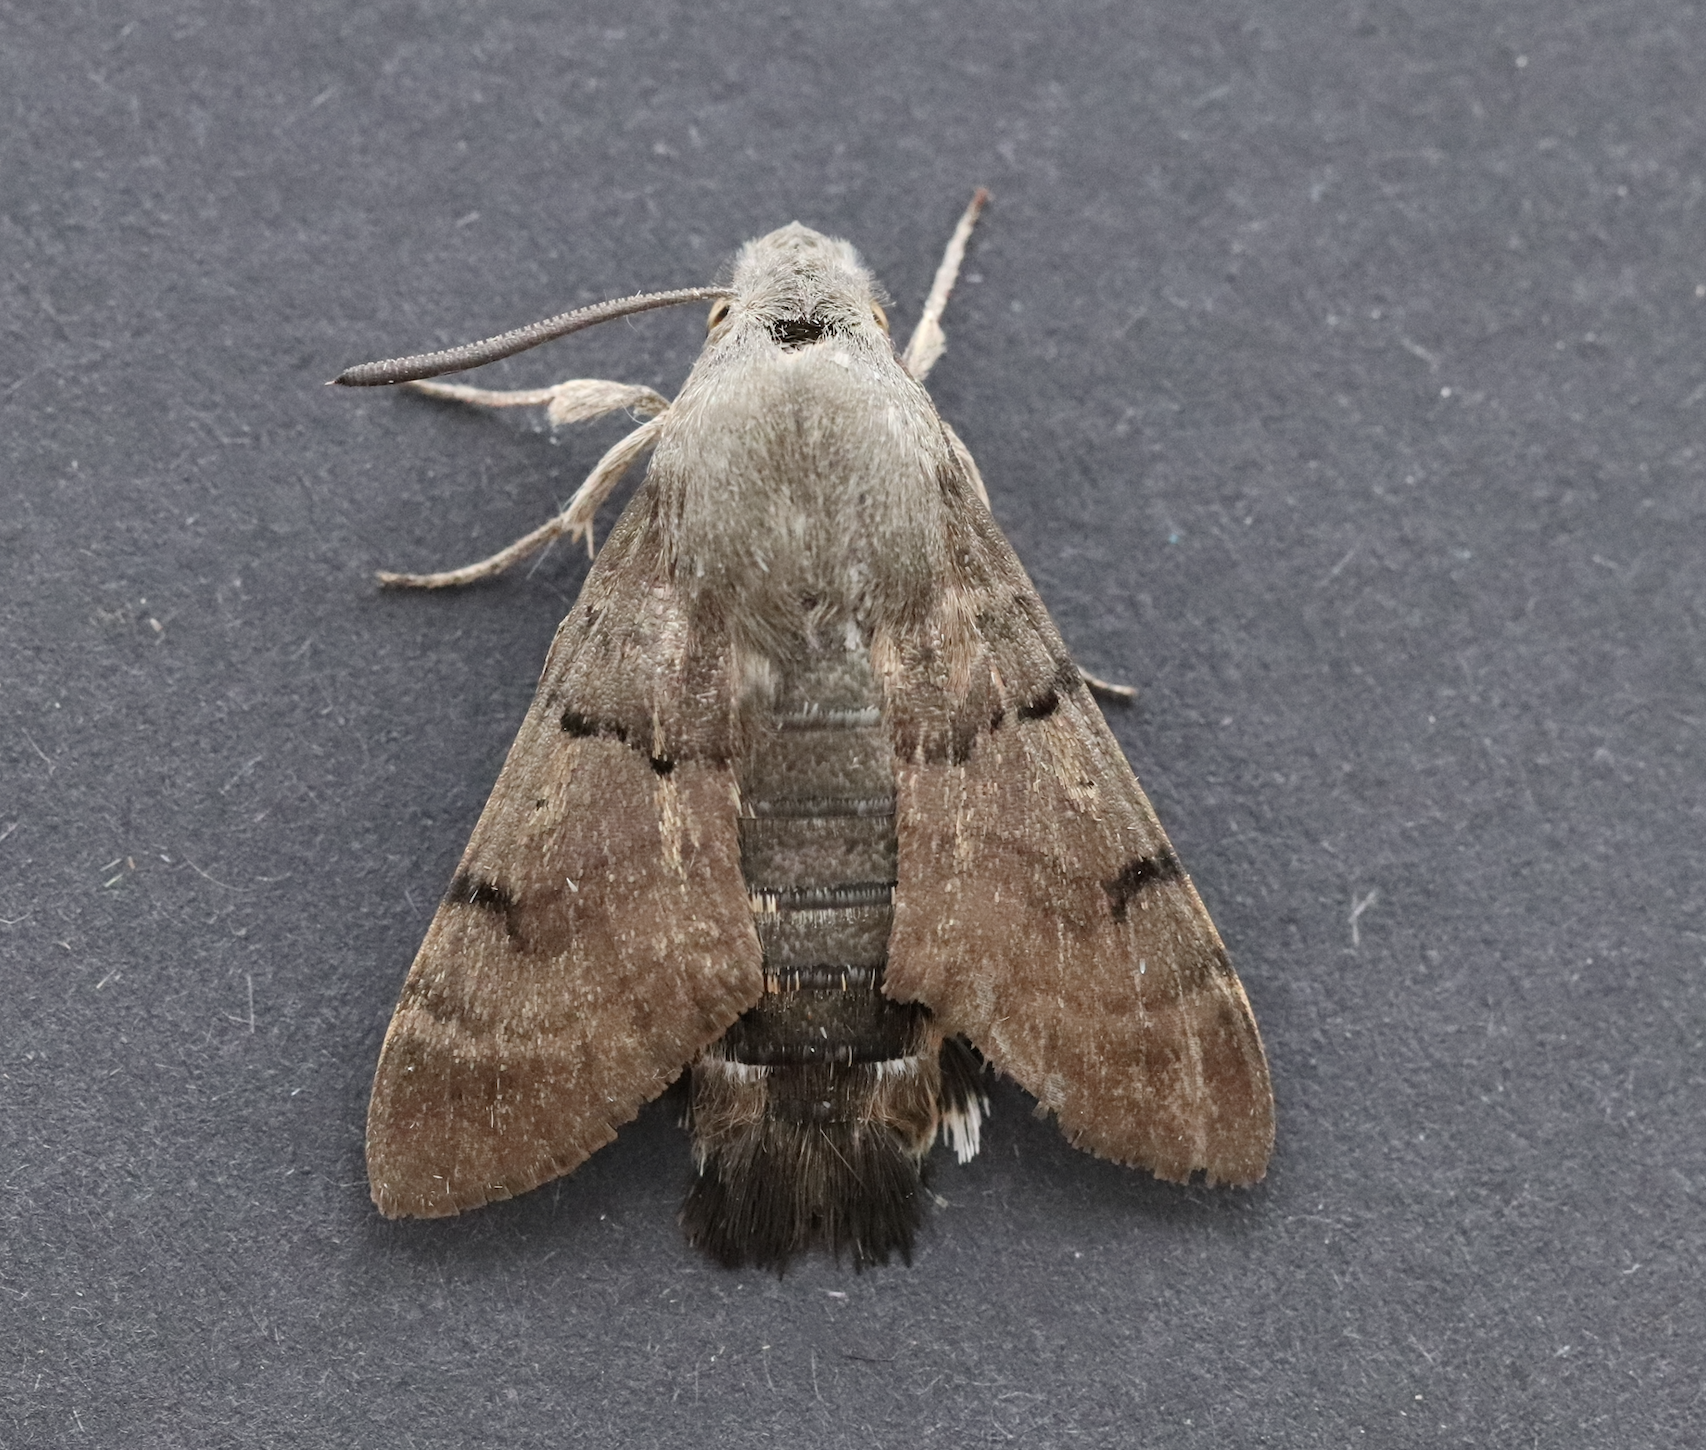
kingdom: Animalia
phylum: Arthropoda
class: Insecta
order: Lepidoptera
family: Sphingidae
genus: Macroglossum
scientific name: Macroglossum stellatarum
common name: Humming-bird hawk-moth
